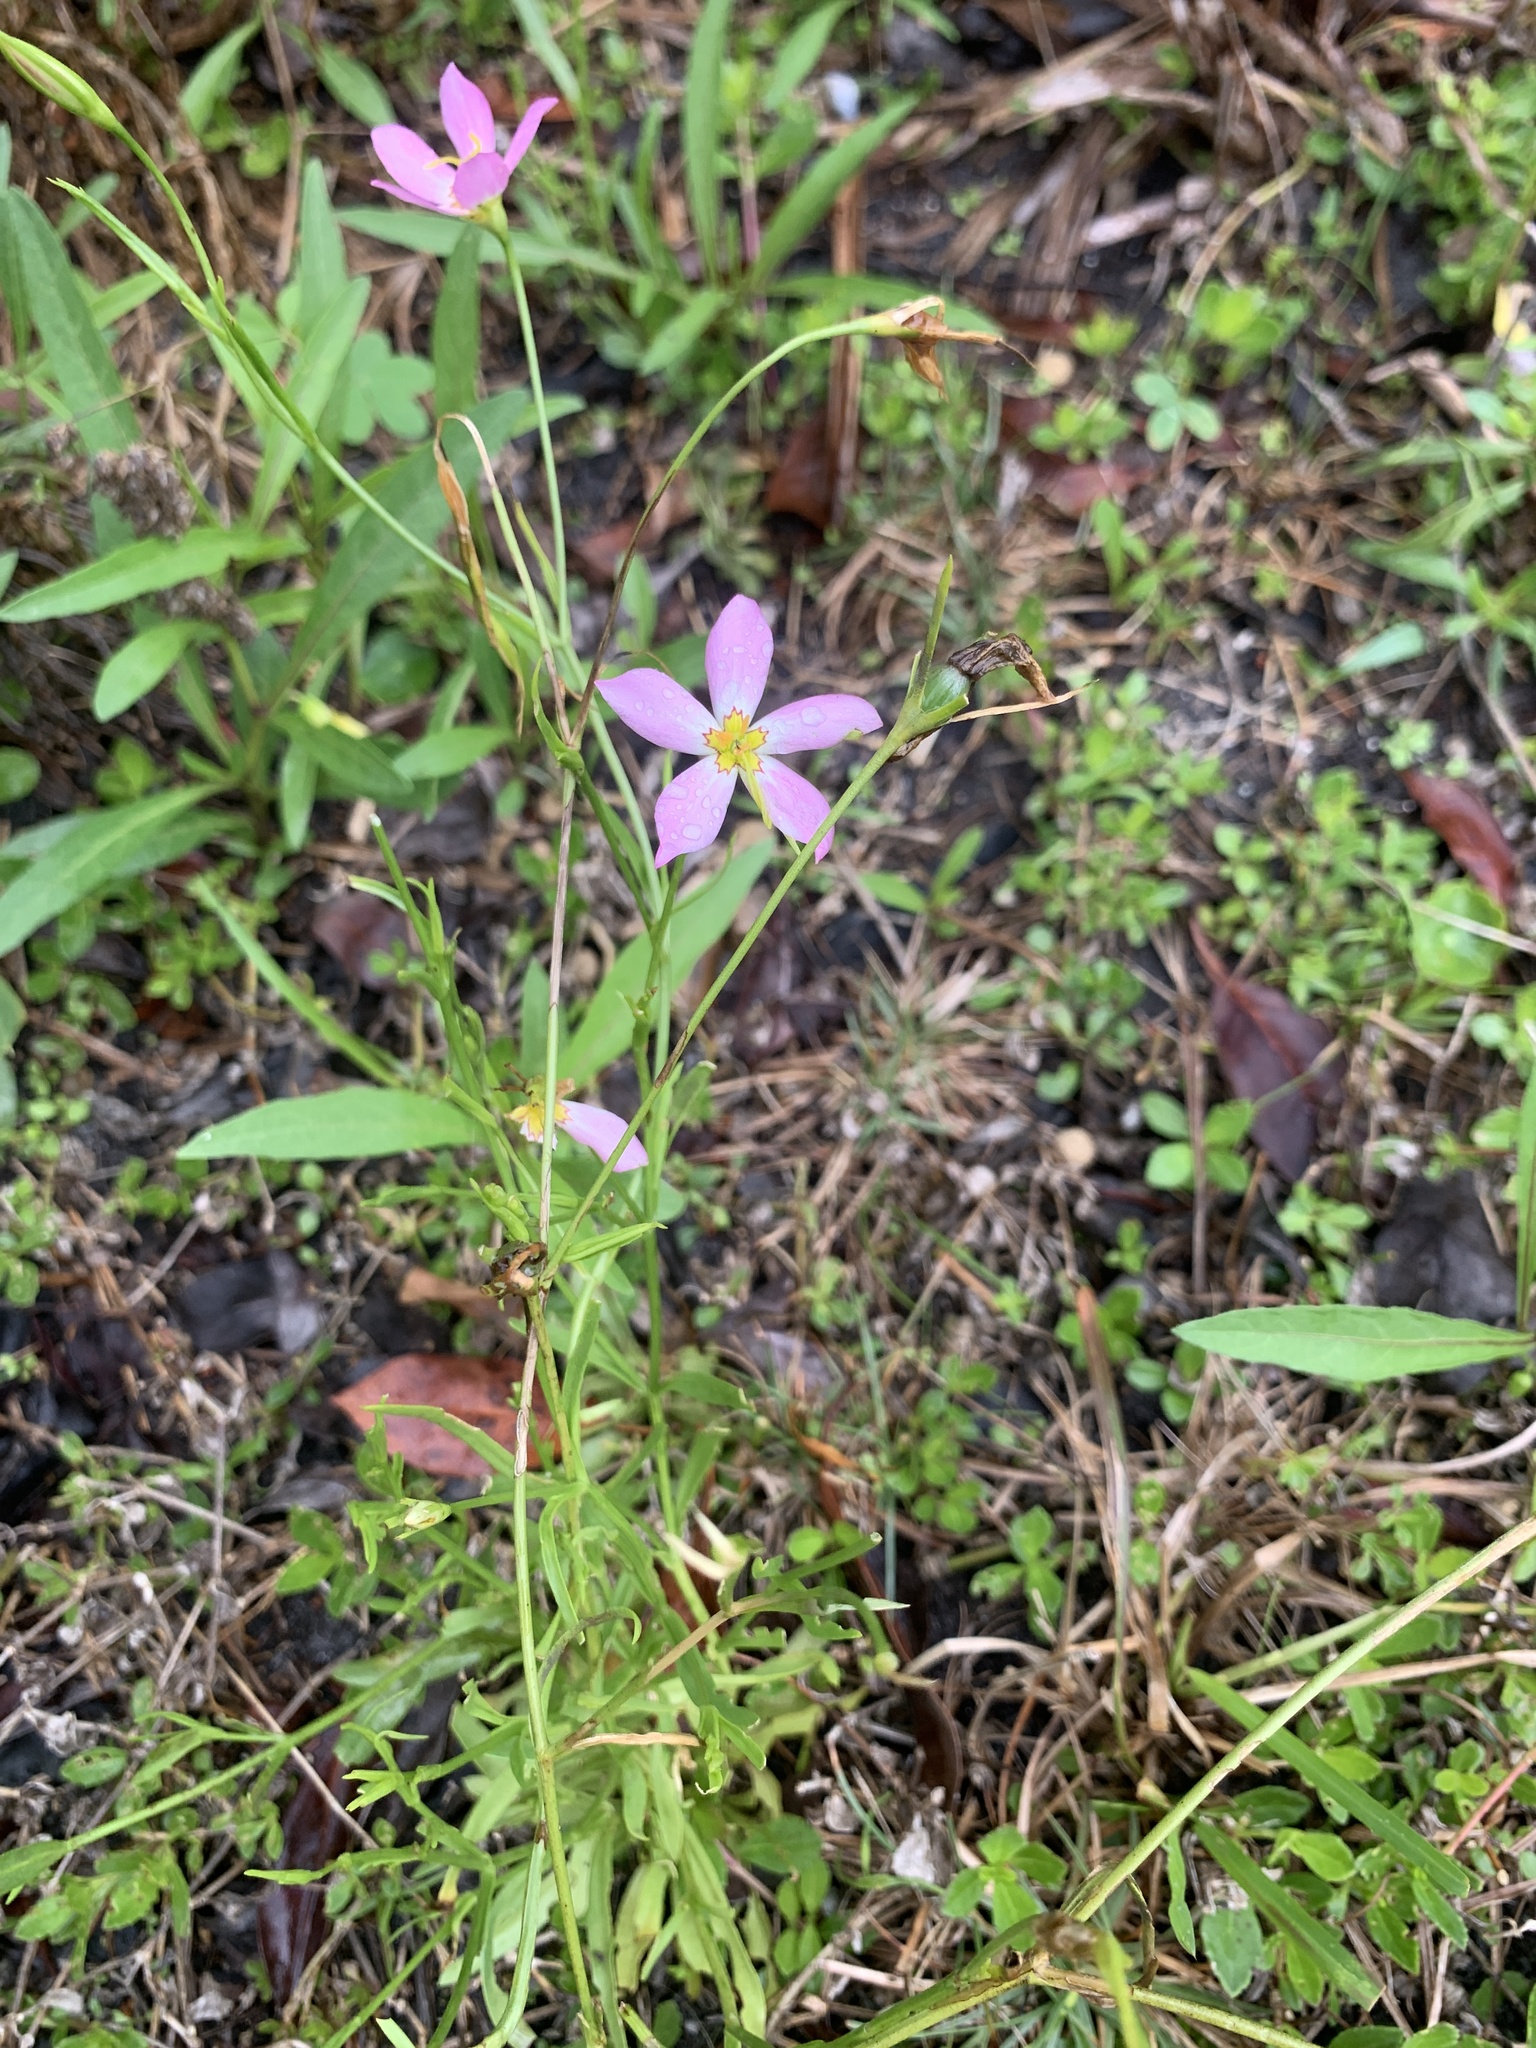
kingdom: Plantae
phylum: Tracheophyta
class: Magnoliopsida
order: Gentianales
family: Gentianaceae
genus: Sabatia
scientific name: Sabatia stellaris
